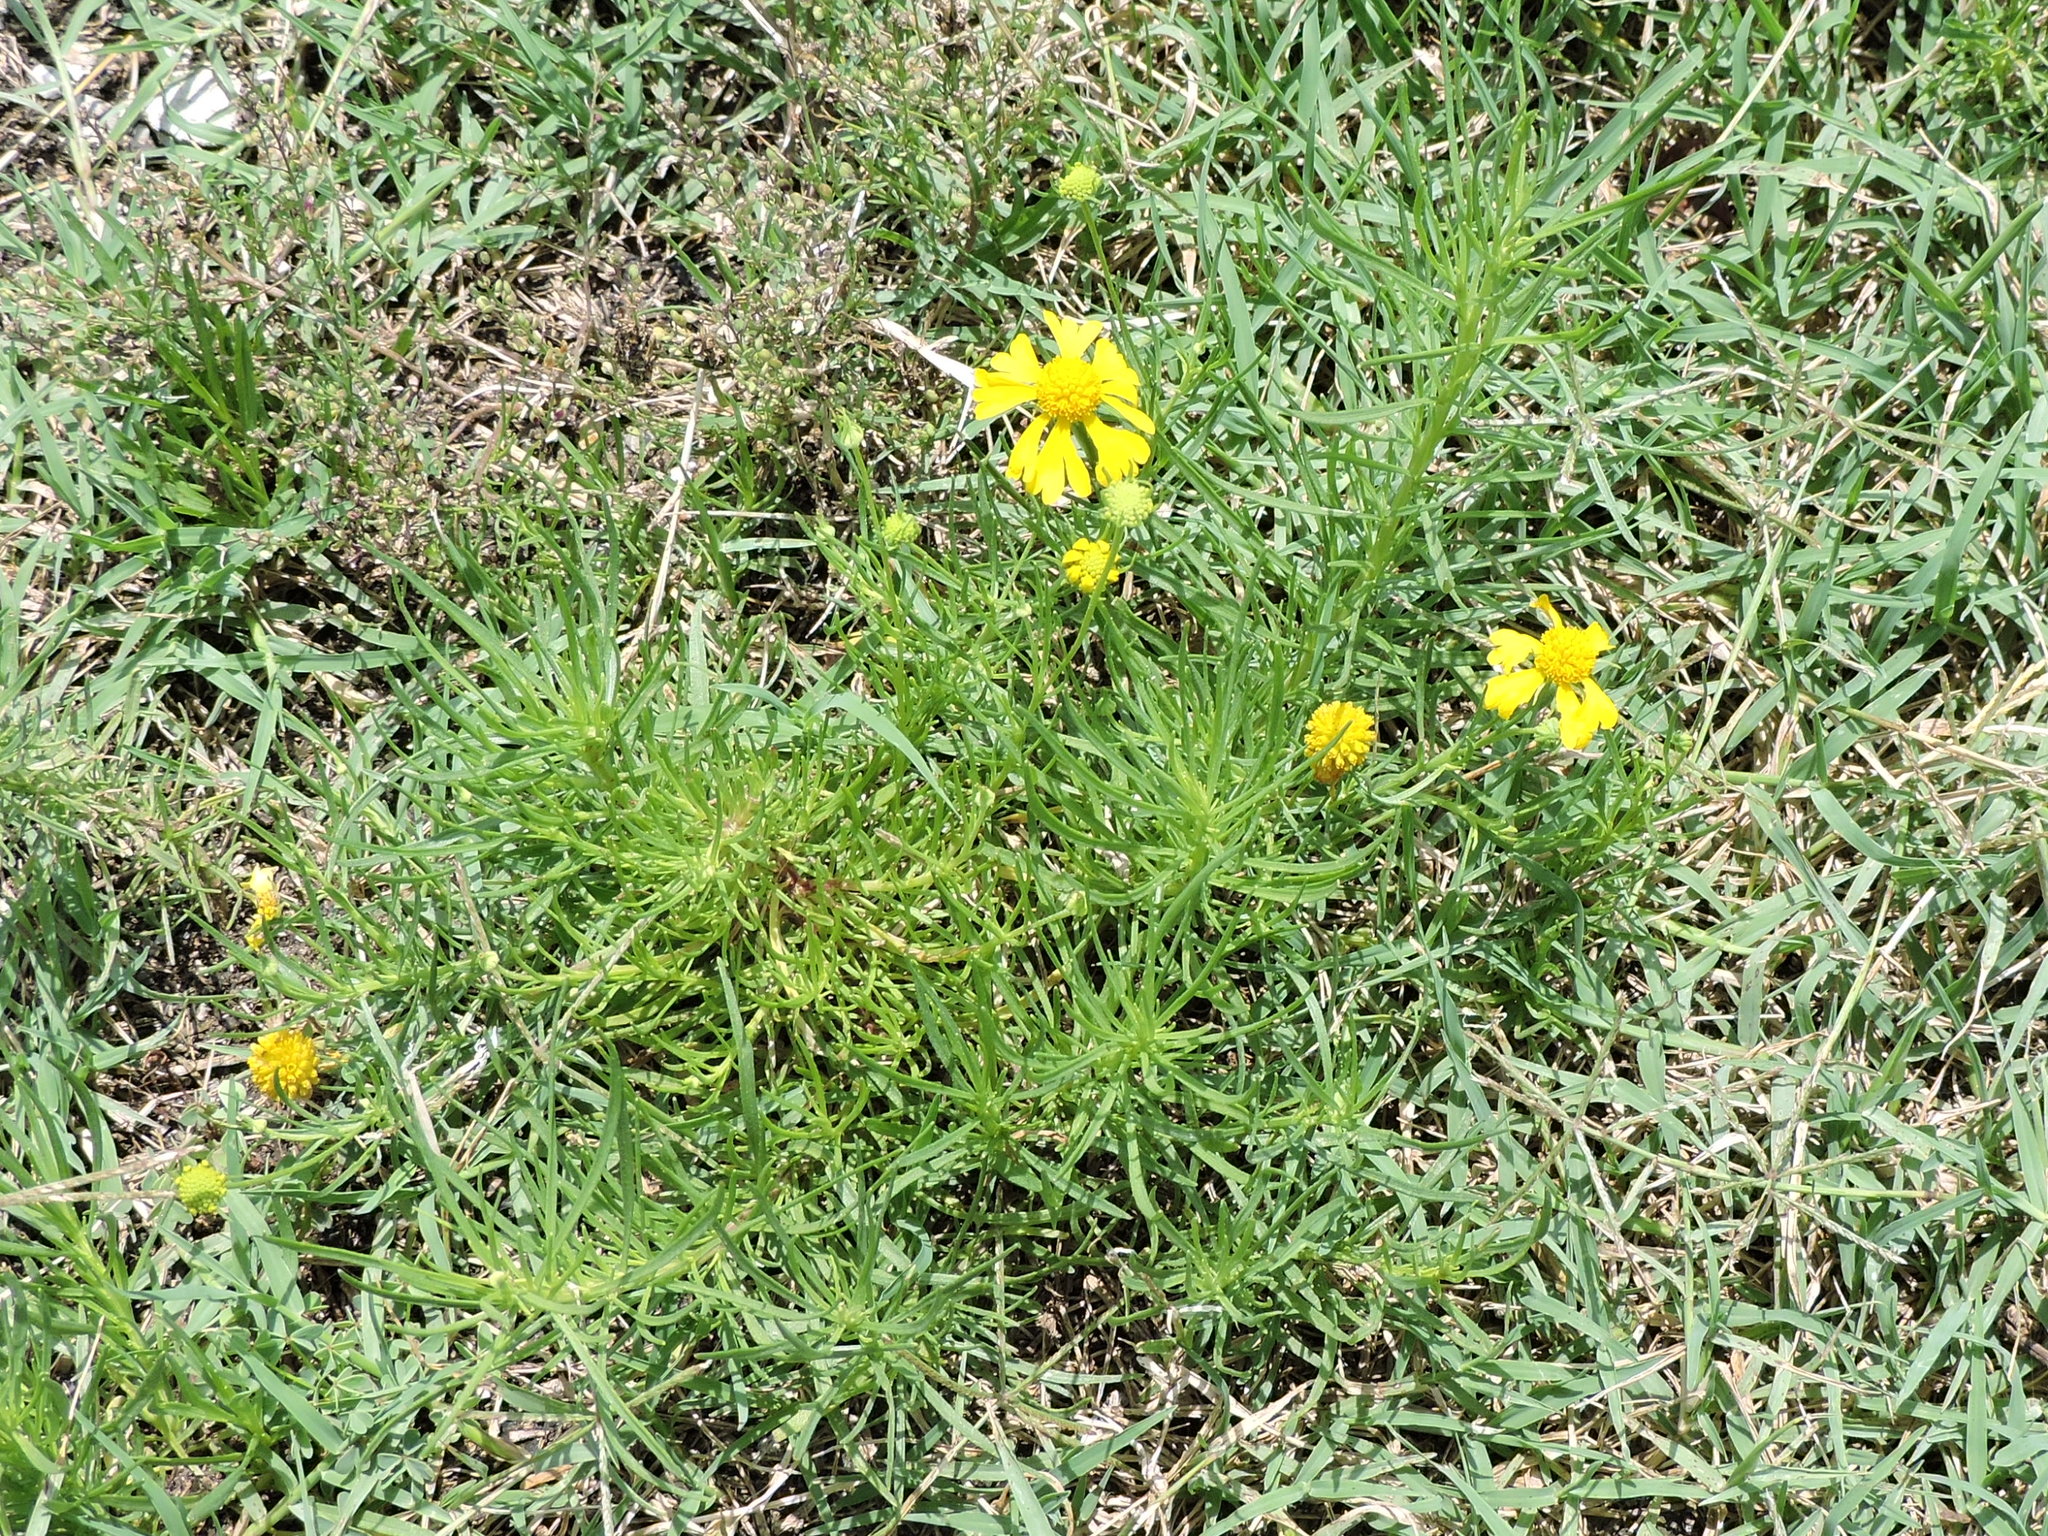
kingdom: Plantae
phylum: Tracheophyta
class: Magnoliopsida
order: Asterales
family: Asteraceae
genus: Helenium
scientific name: Helenium amarum
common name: Bitter sneezeweed
